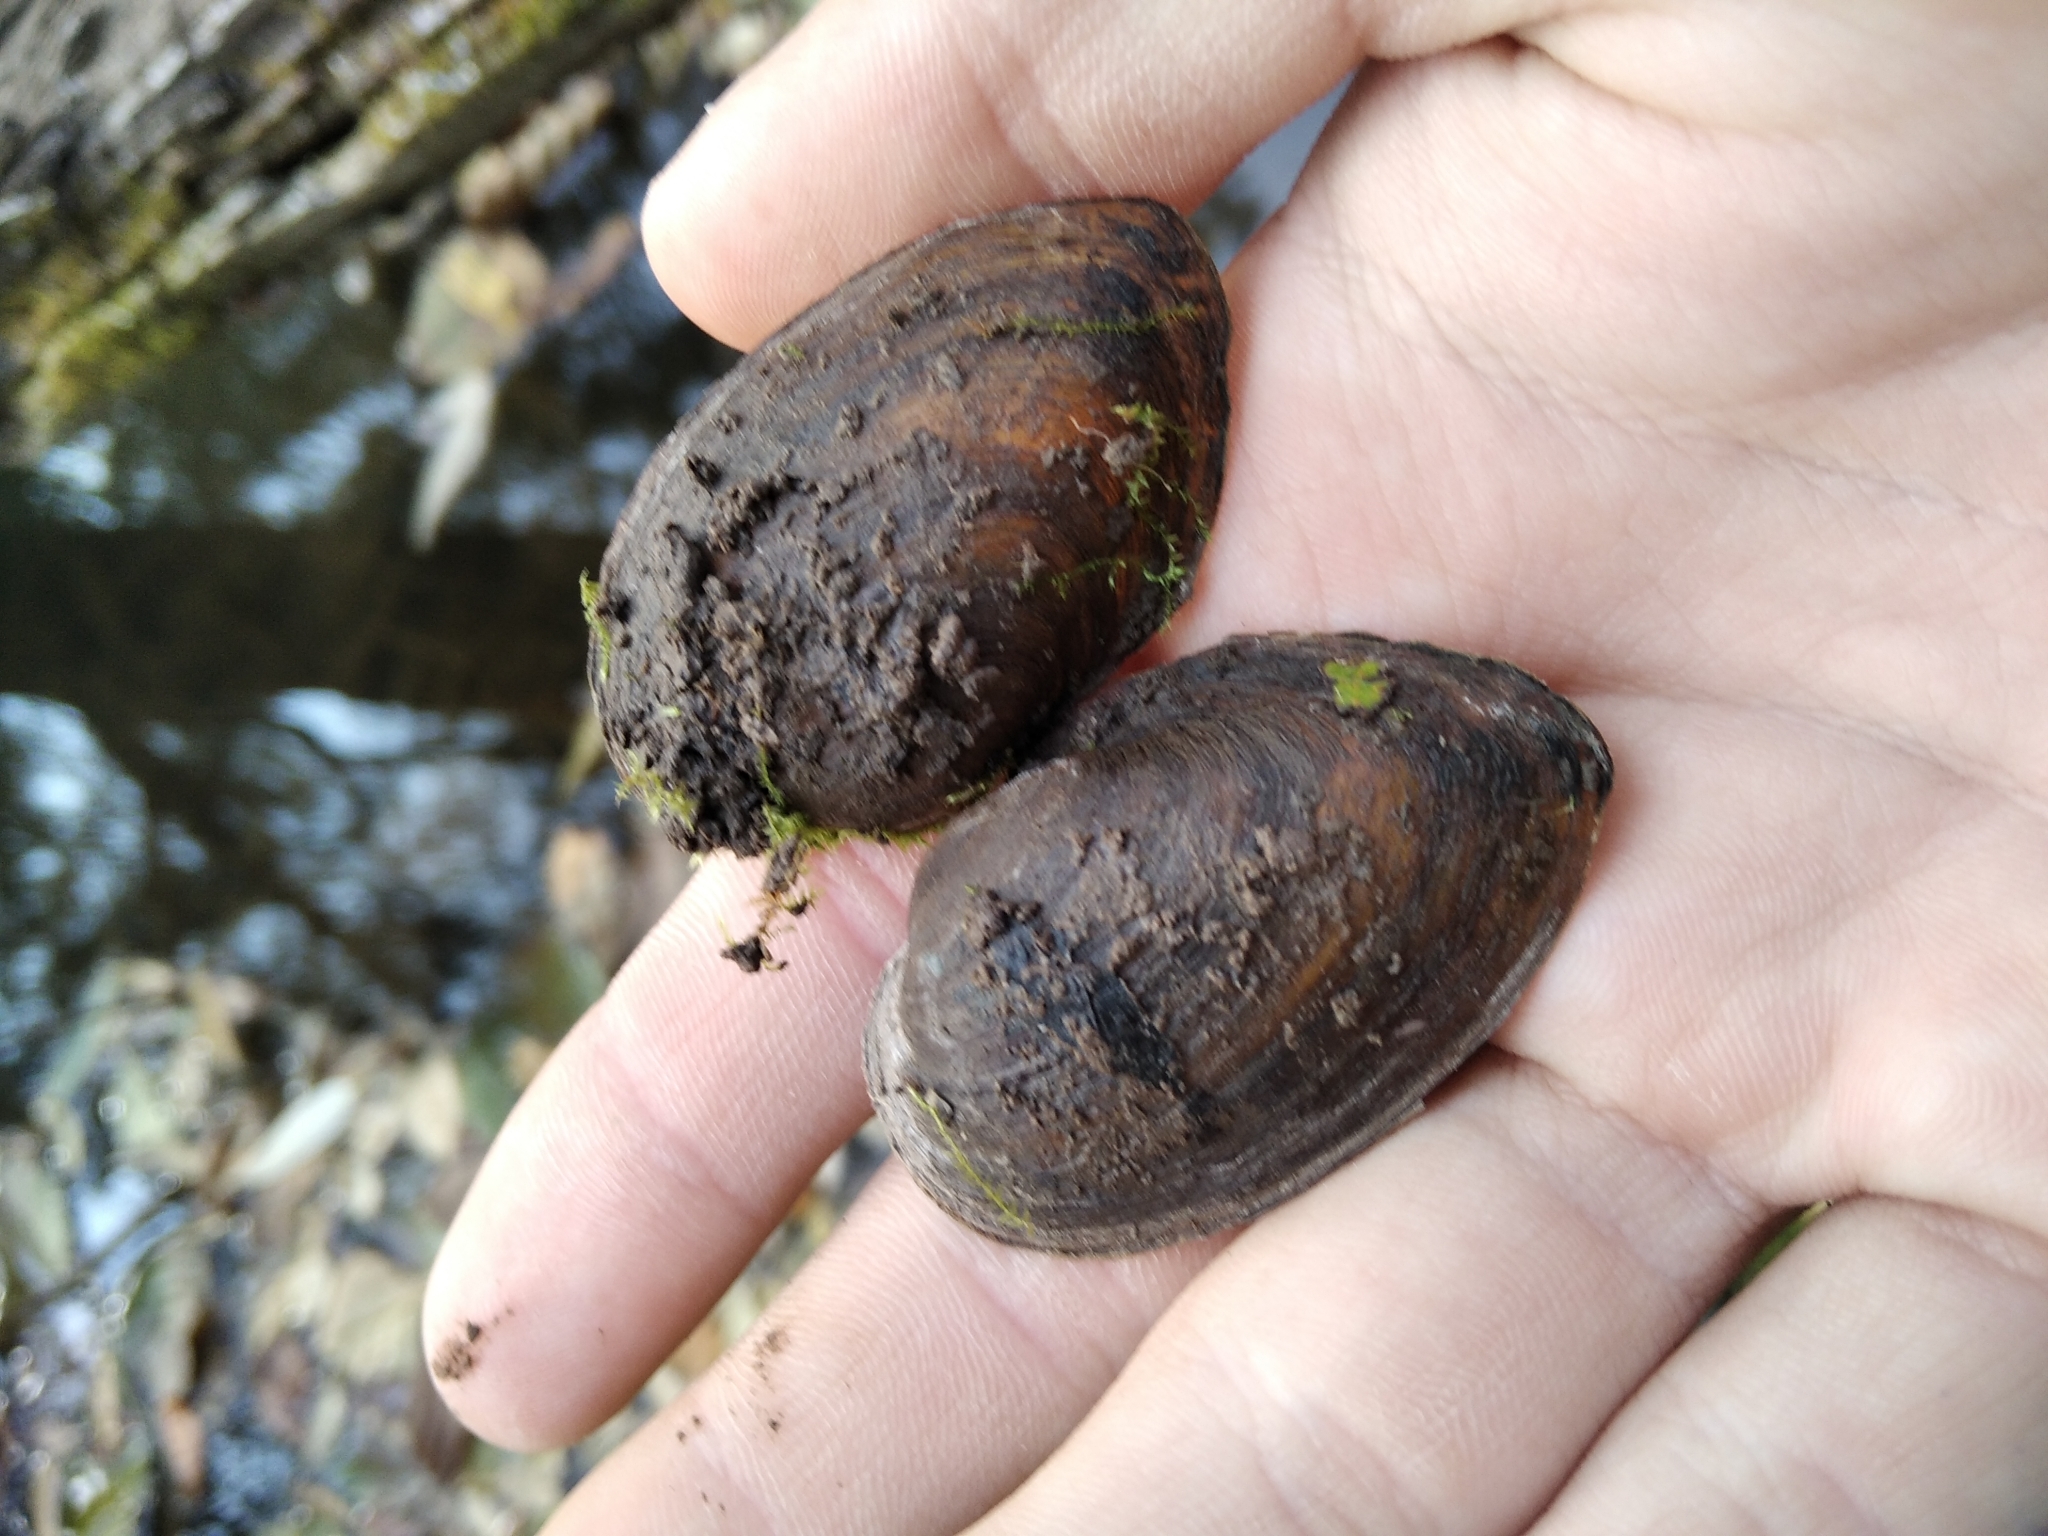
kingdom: Animalia
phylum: Mollusca
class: Bivalvia
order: Unionida
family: Unionidae
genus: Unio
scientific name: Unio crassus
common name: Thick shelled river mussel
